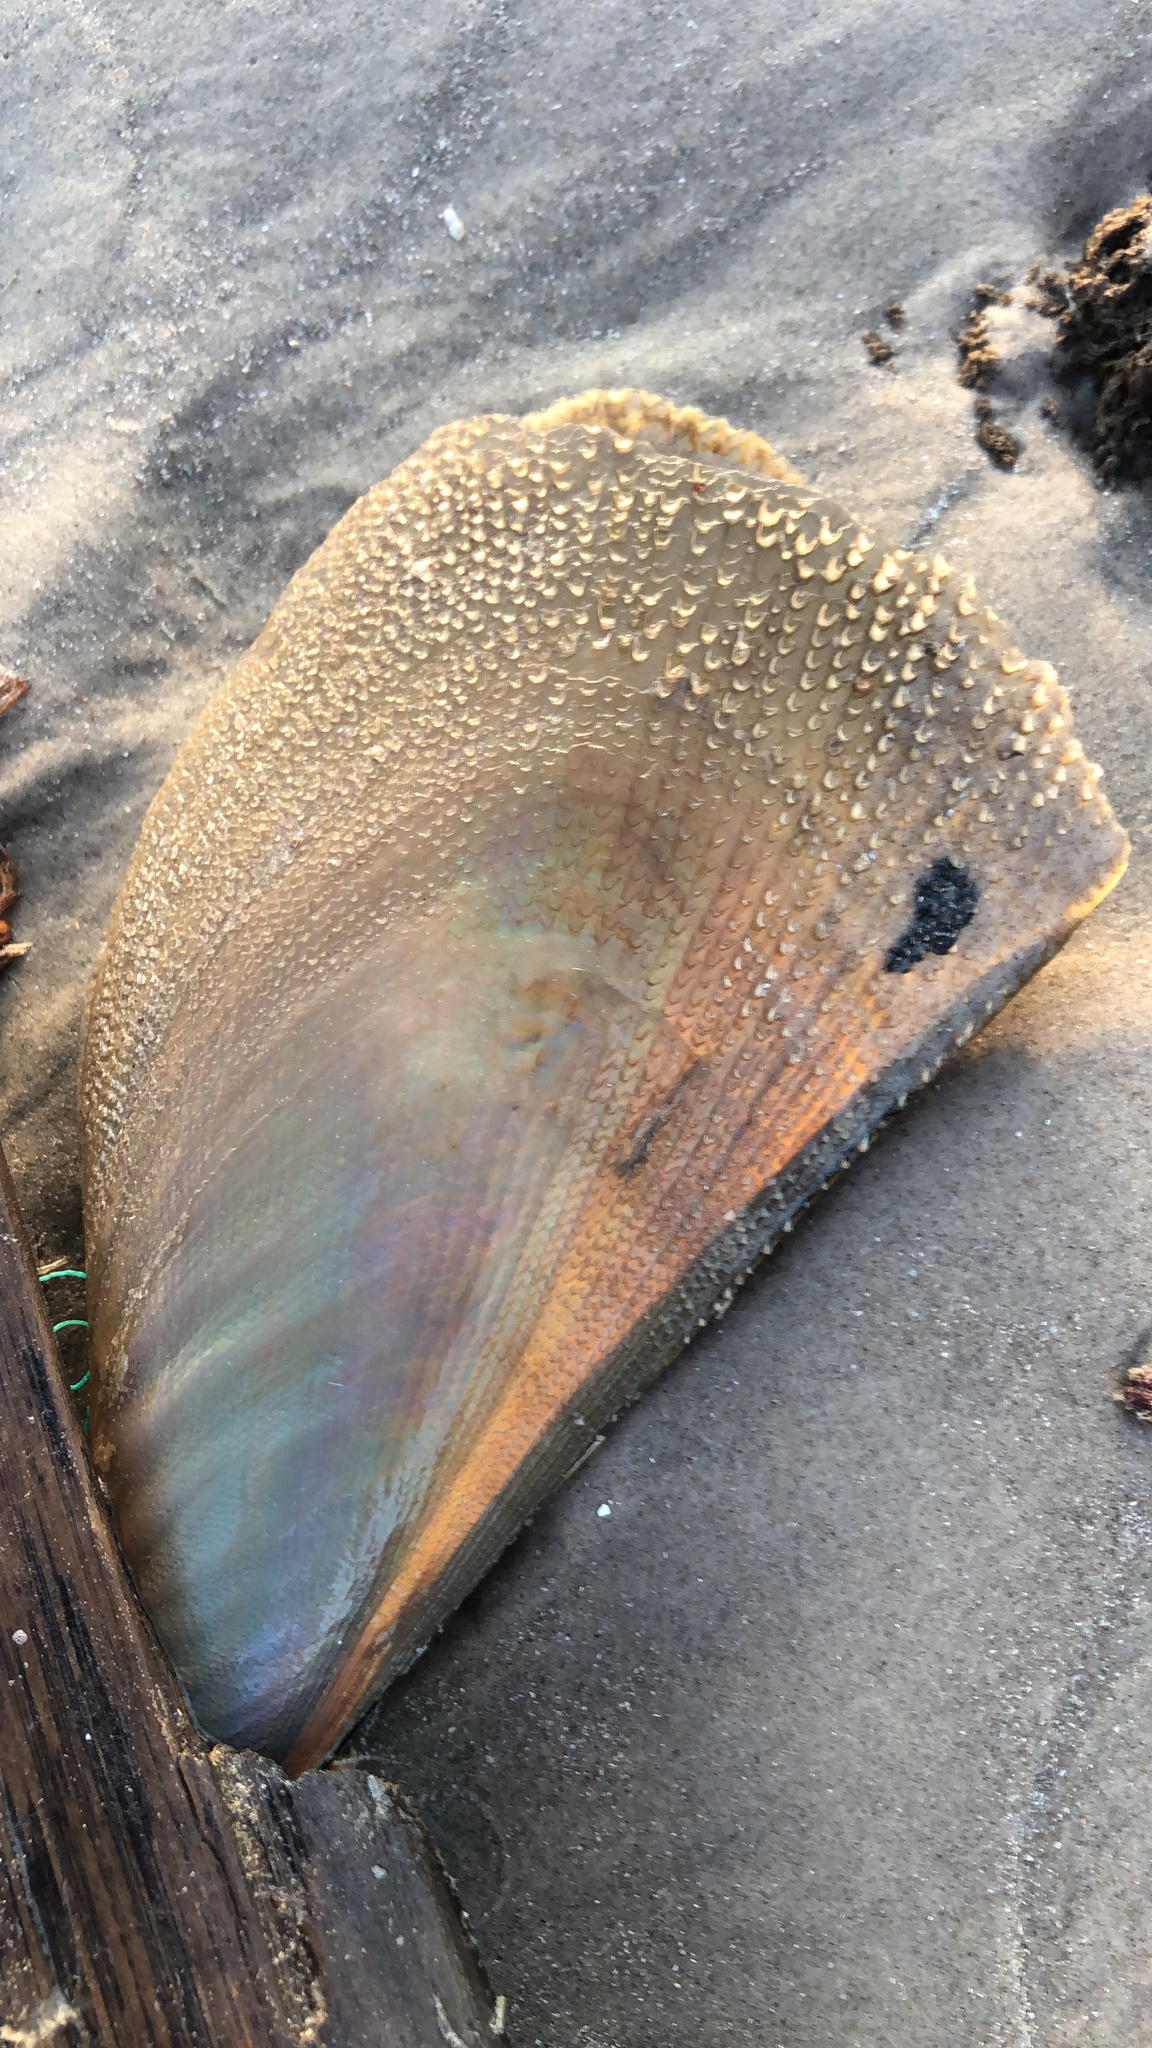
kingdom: Animalia
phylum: Mollusca
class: Bivalvia
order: Ostreida
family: Pinnidae
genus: Atrina
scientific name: Atrina serrata
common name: Saw-toothed penshell
